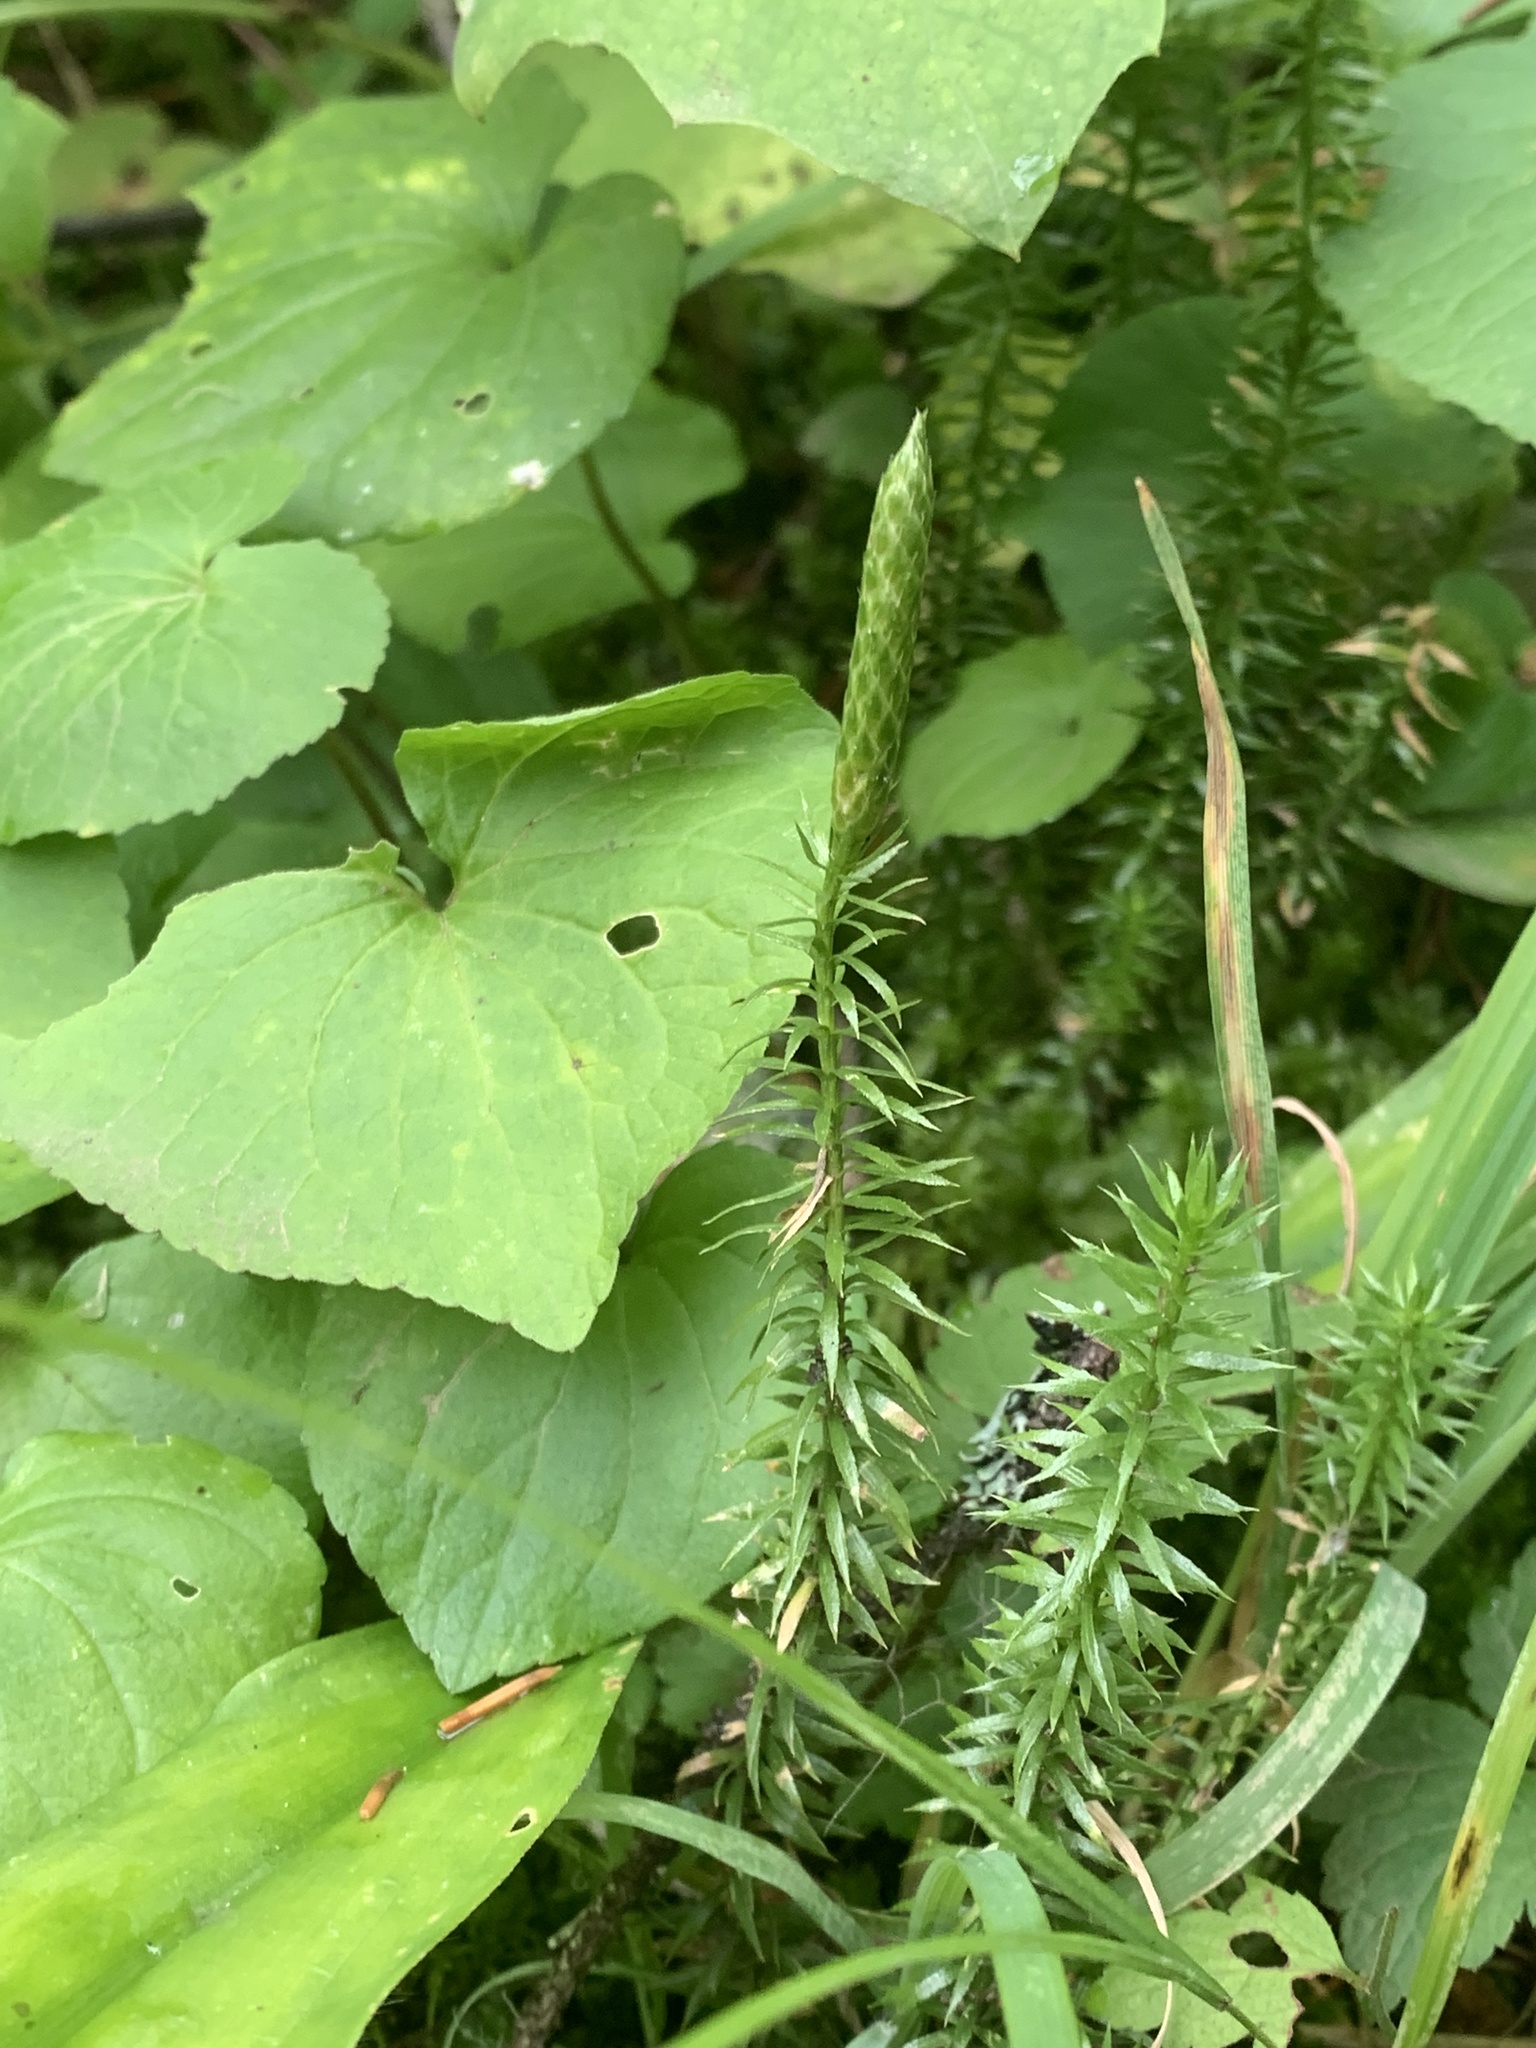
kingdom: Plantae
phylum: Tracheophyta
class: Lycopodiopsida
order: Lycopodiales
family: Lycopodiaceae
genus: Spinulum
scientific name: Spinulum annotinum
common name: Interrupted club-moss
